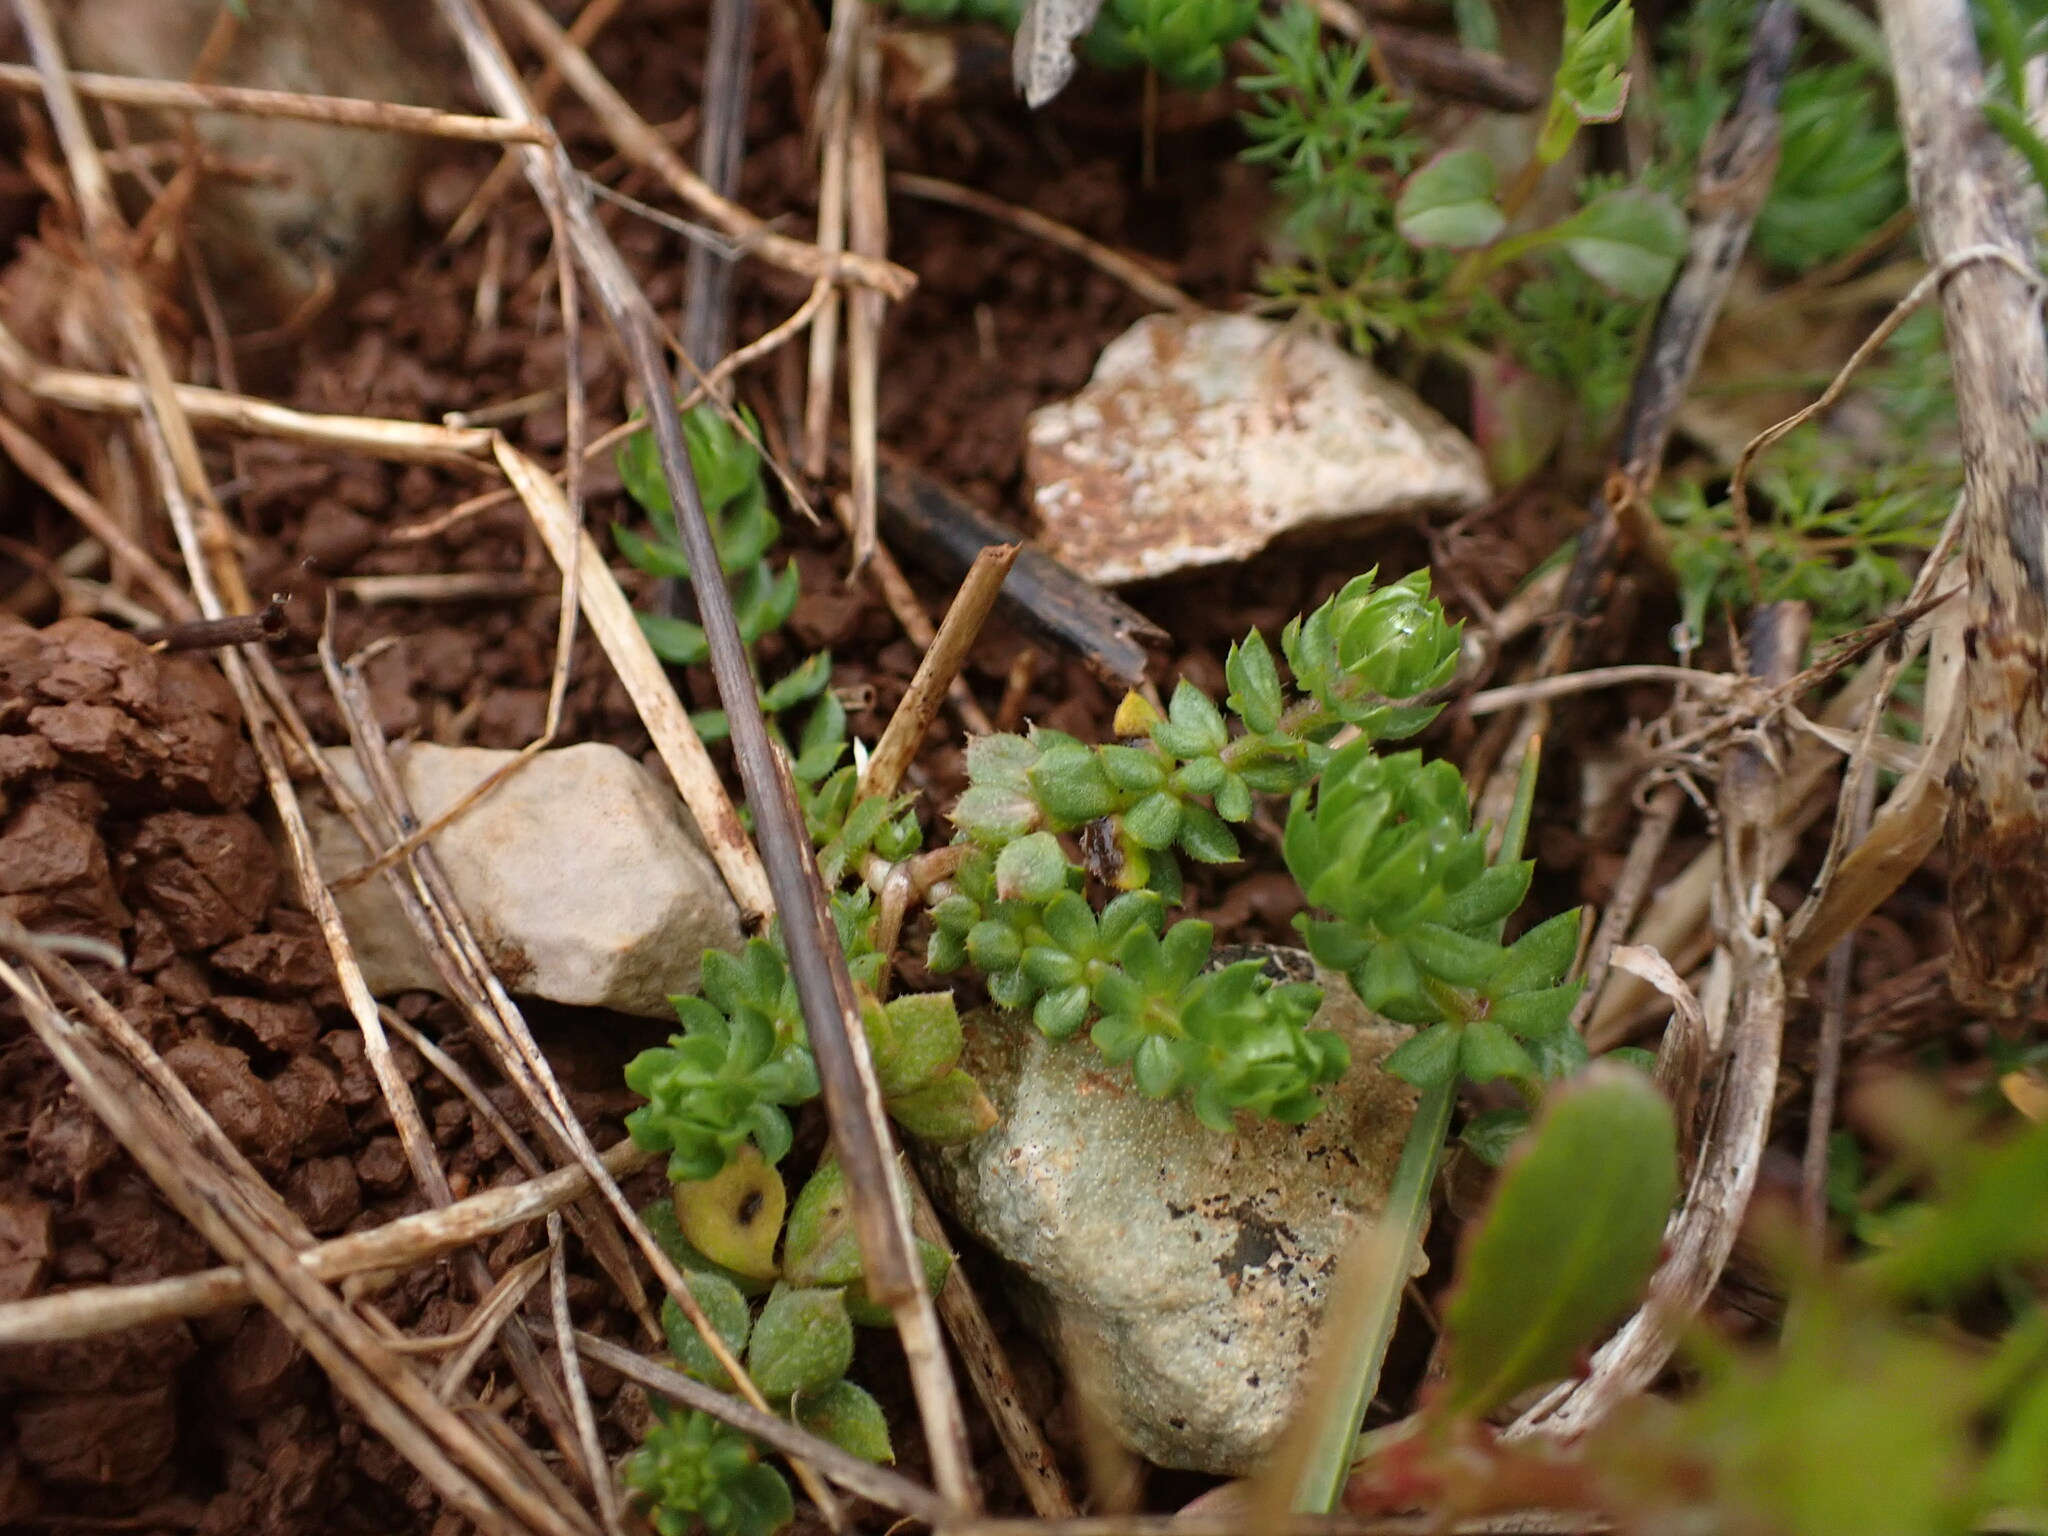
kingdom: Plantae
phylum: Tracheophyta
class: Magnoliopsida
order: Gentianales
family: Rubiaceae
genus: Sherardia
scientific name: Sherardia arvensis
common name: Field madder
